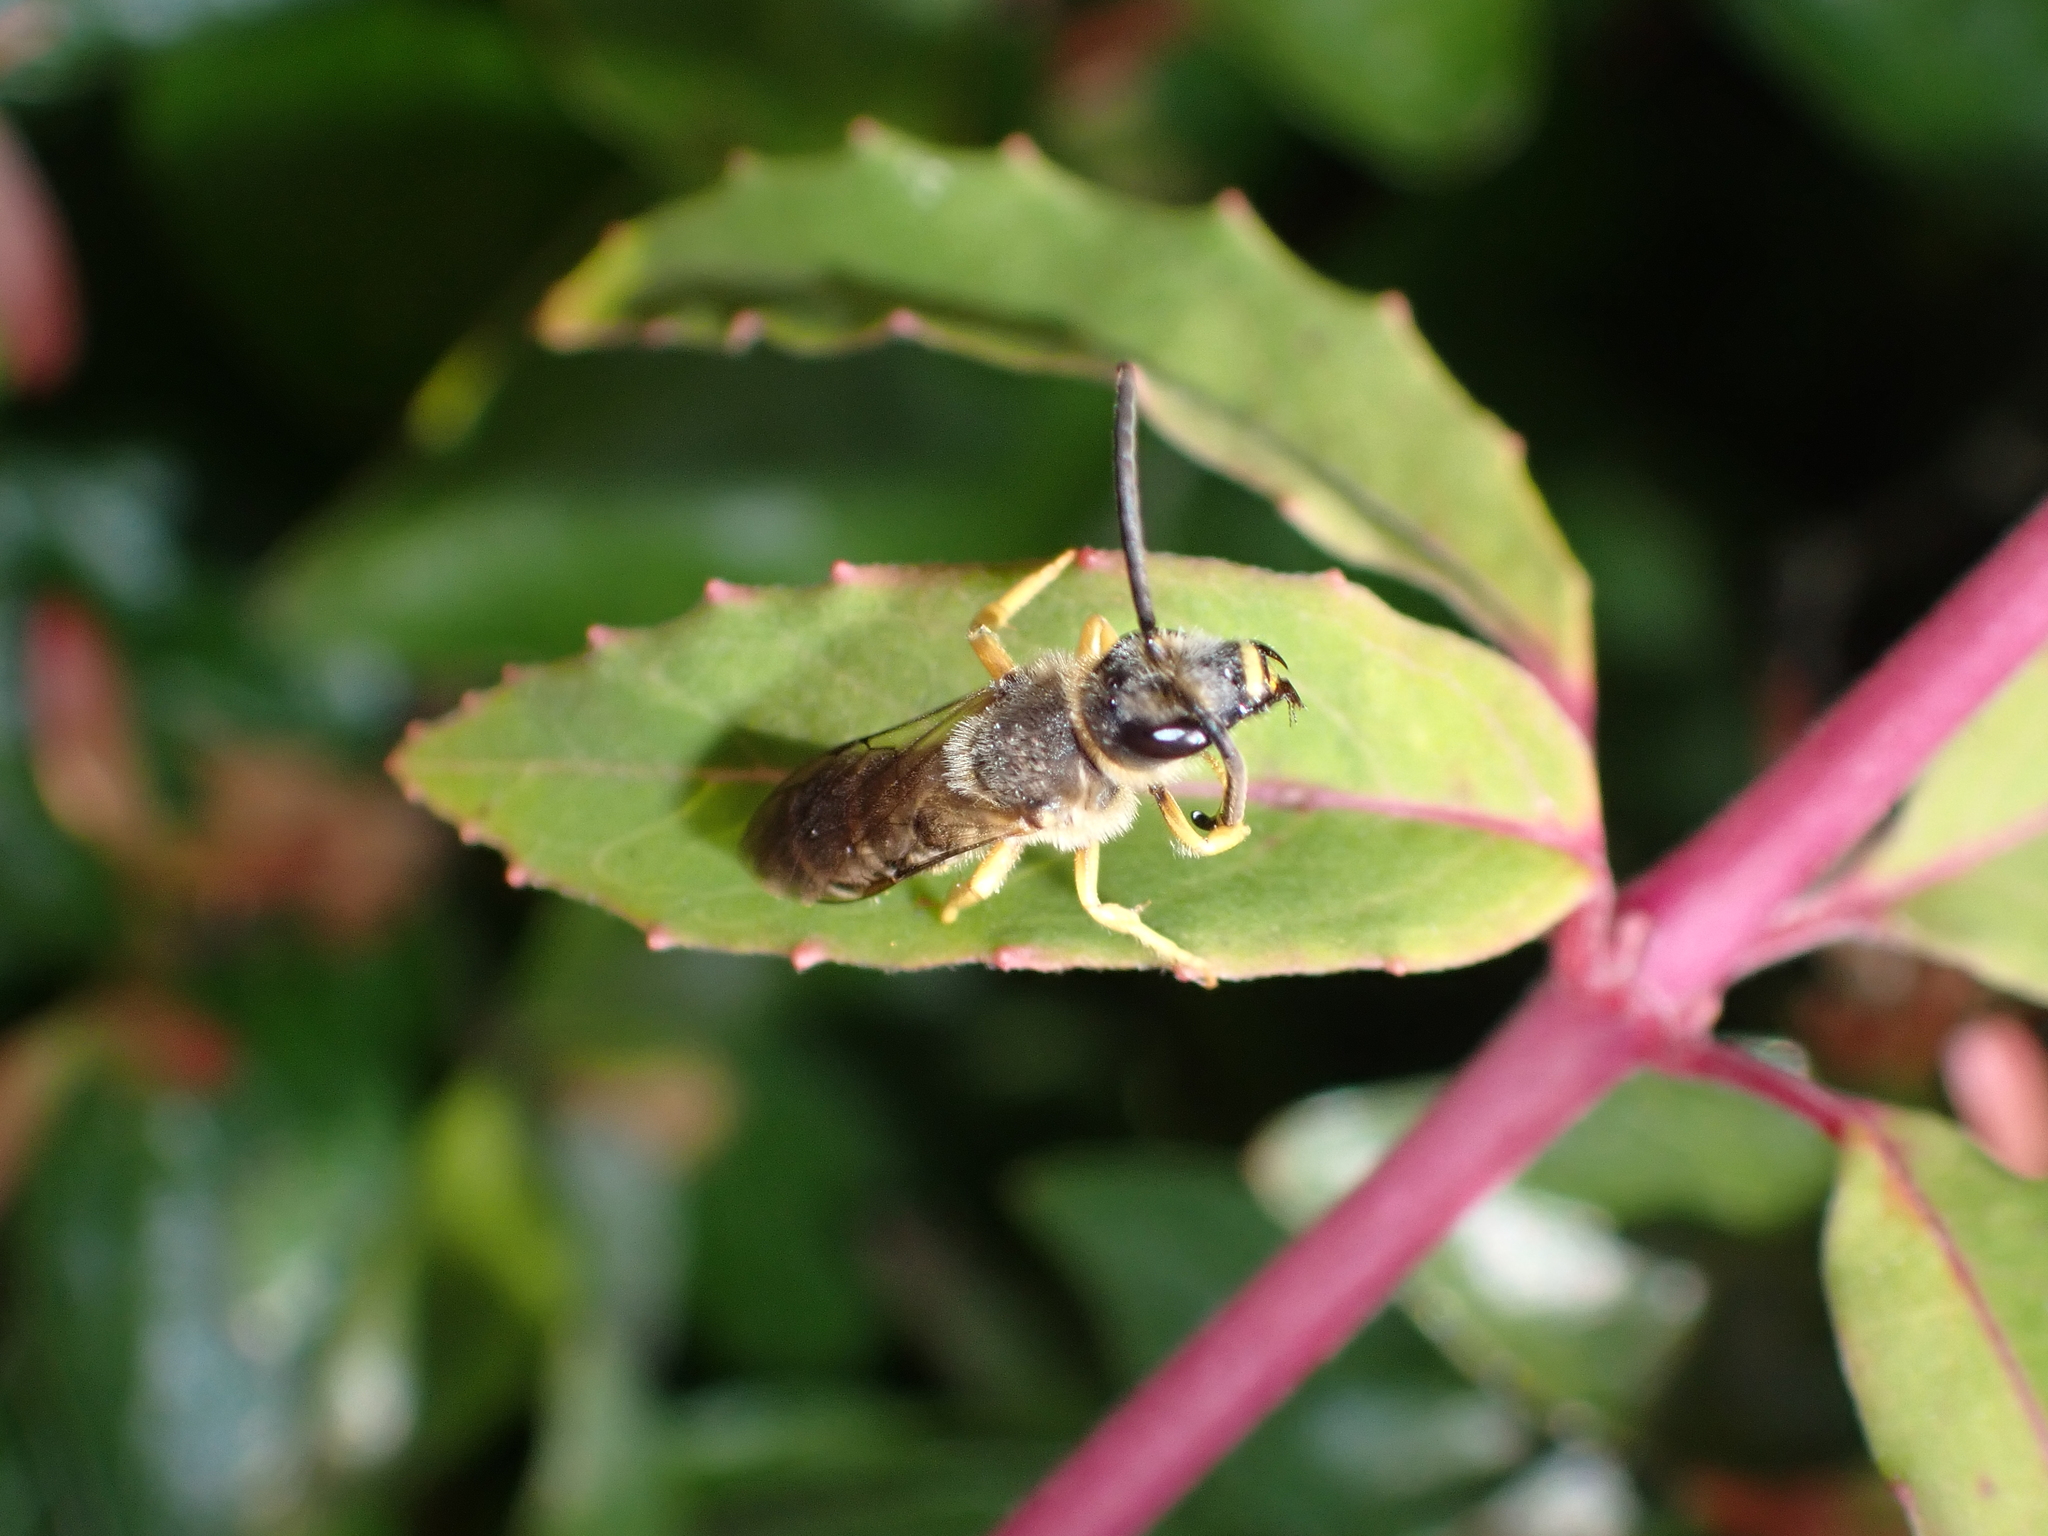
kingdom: Animalia
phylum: Arthropoda
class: Insecta
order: Hymenoptera
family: Halictidae
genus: Halictus
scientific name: Halictus scabiosae
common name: Great banded furrow bee
